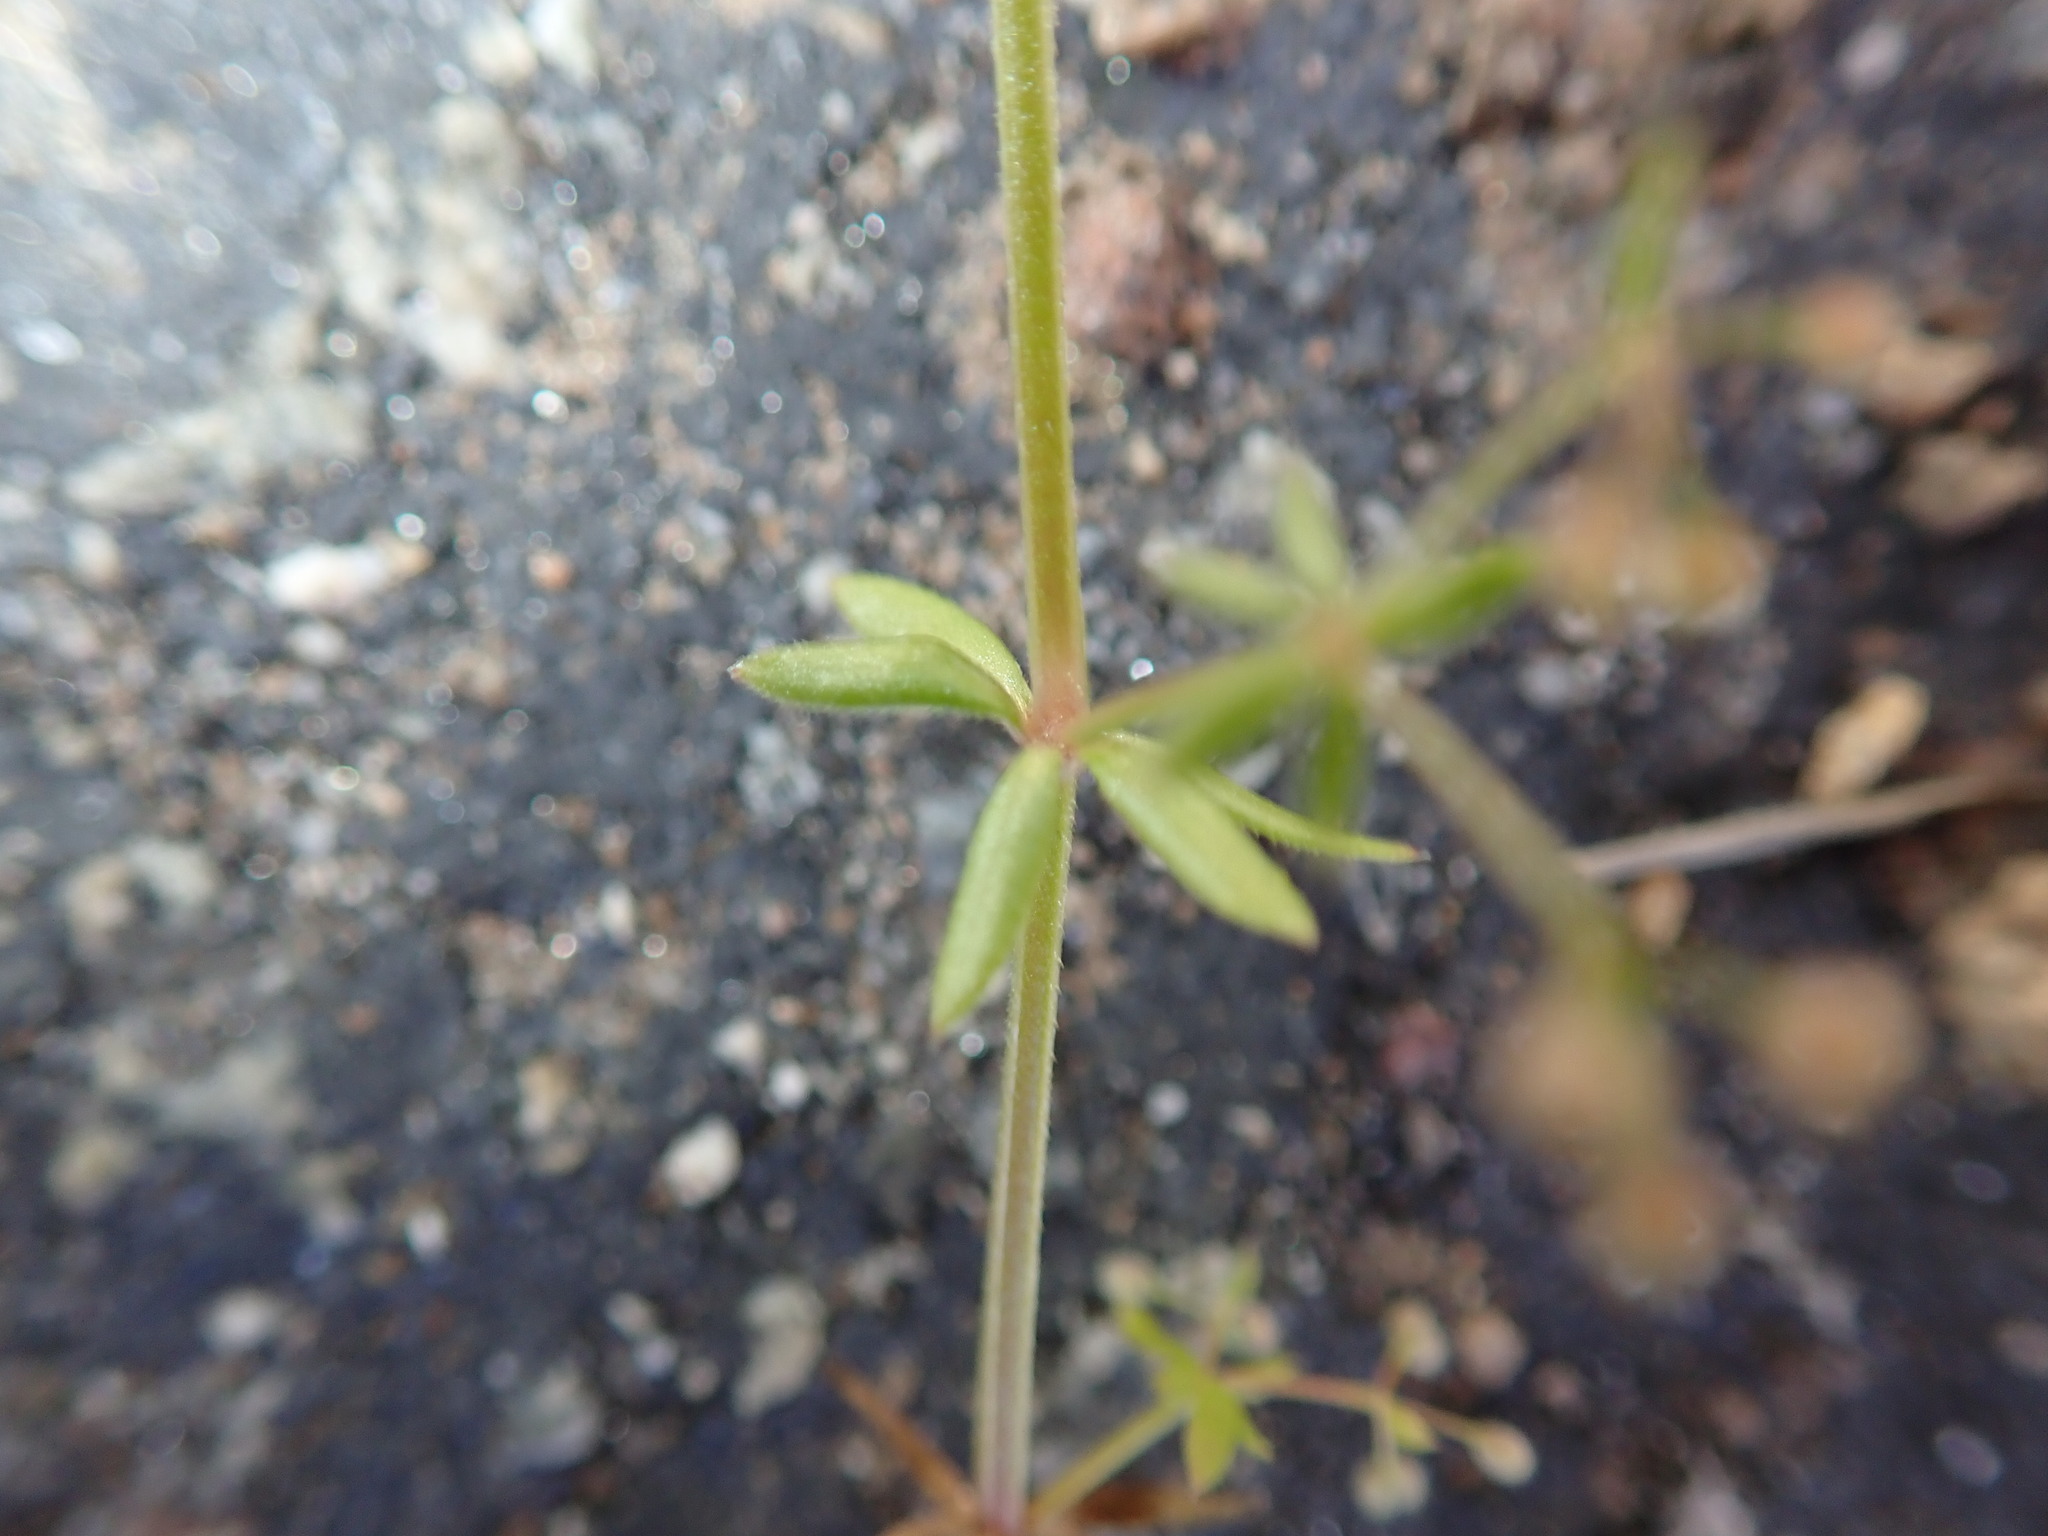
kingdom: Plantae
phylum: Tracheophyta
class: Magnoliopsida
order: Gentianales
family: Rubiaceae
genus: Galium
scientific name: Galium aparine
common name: Cleavers
